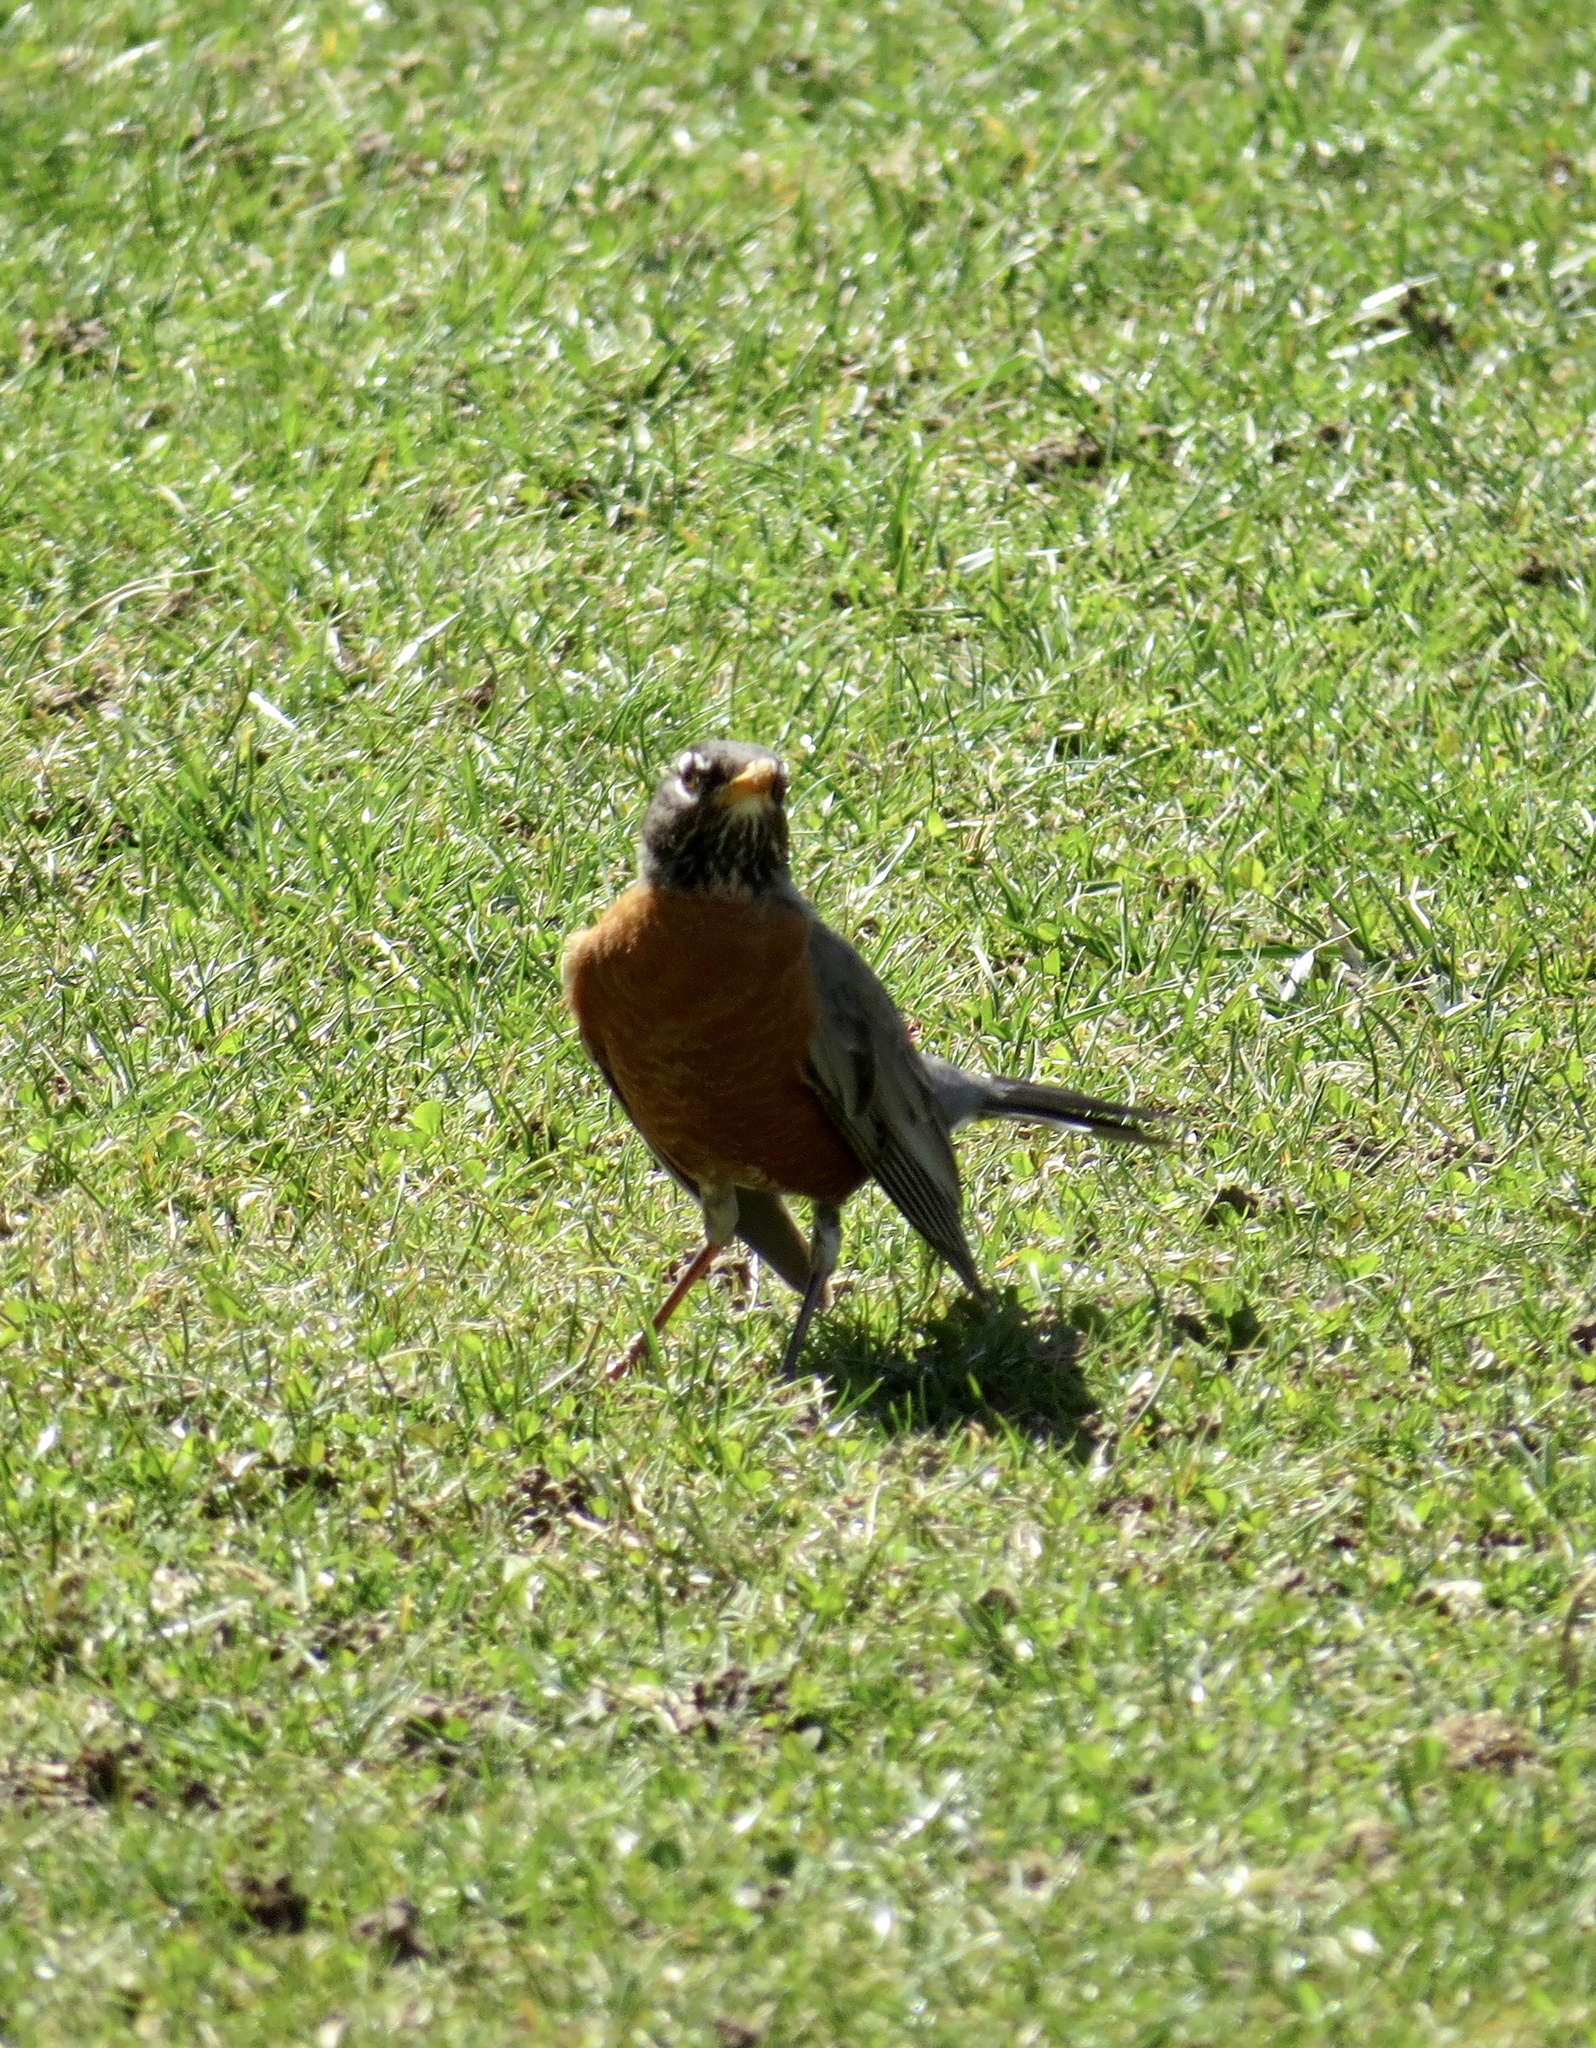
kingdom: Animalia
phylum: Chordata
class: Aves
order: Passeriformes
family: Turdidae
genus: Turdus
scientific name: Turdus migratorius
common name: American robin
